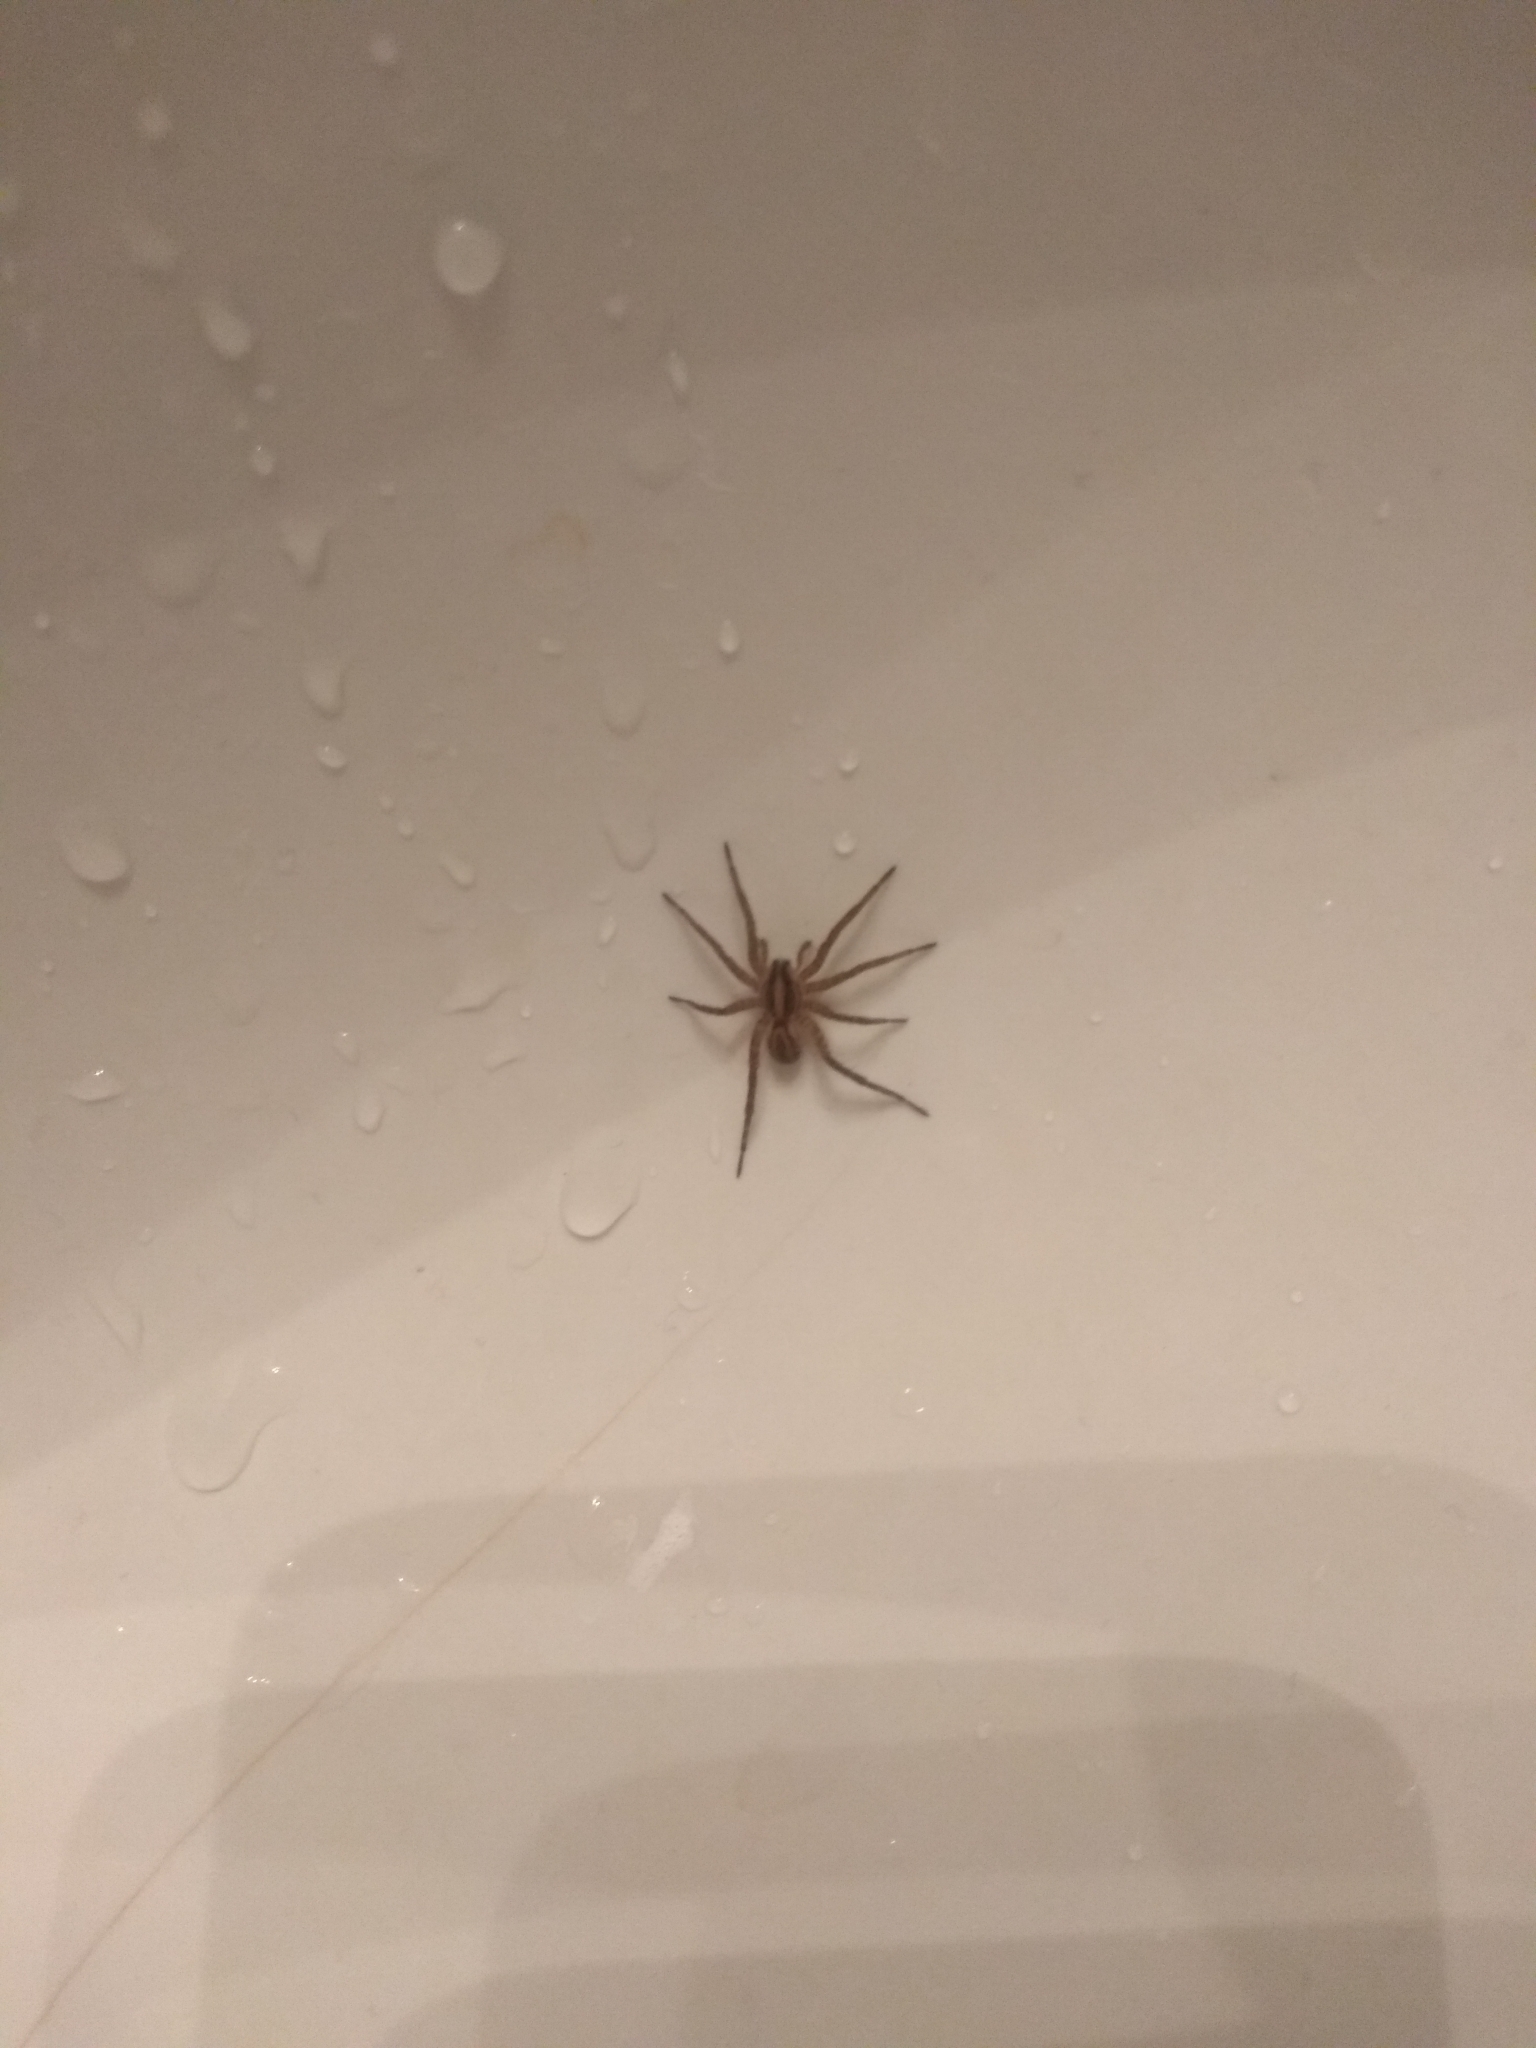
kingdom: Animalia
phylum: Arthropoda
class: Arachnida
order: Araneae
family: Lycosidae
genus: Alopecosa
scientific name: Alopecosa moesta
